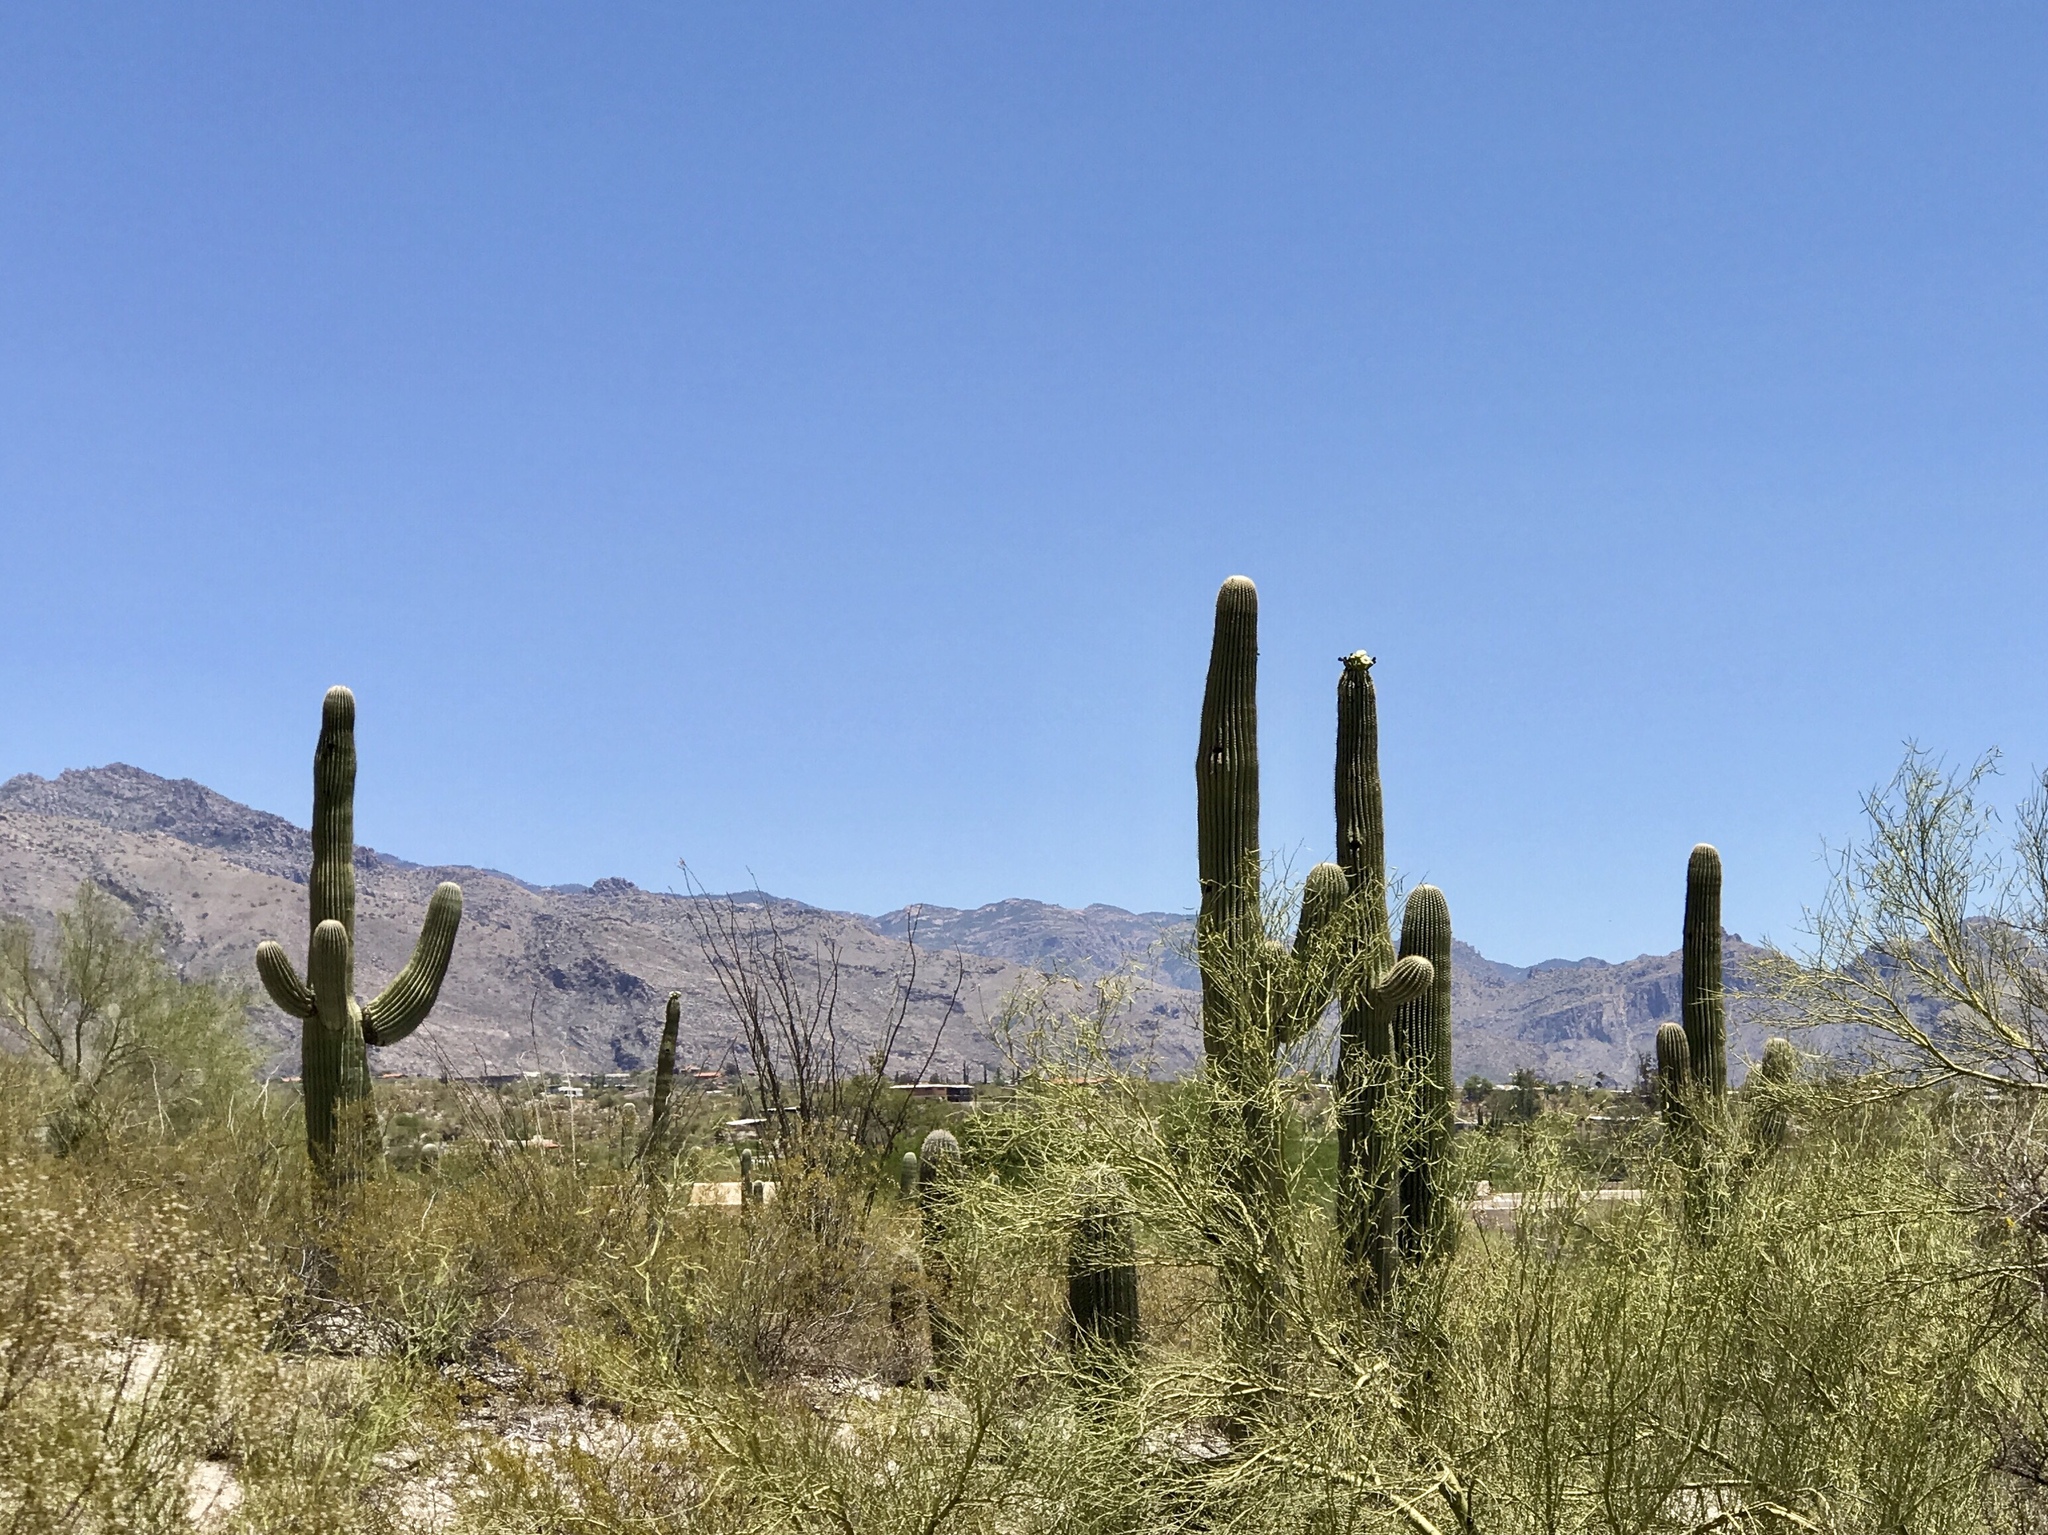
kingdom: Plantae
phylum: Tracheophyta
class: Magnoliopsida
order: Caryophyllales
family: Cactaceae
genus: Carnegiea
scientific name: Carnegiea gigantea
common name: Saguaro
